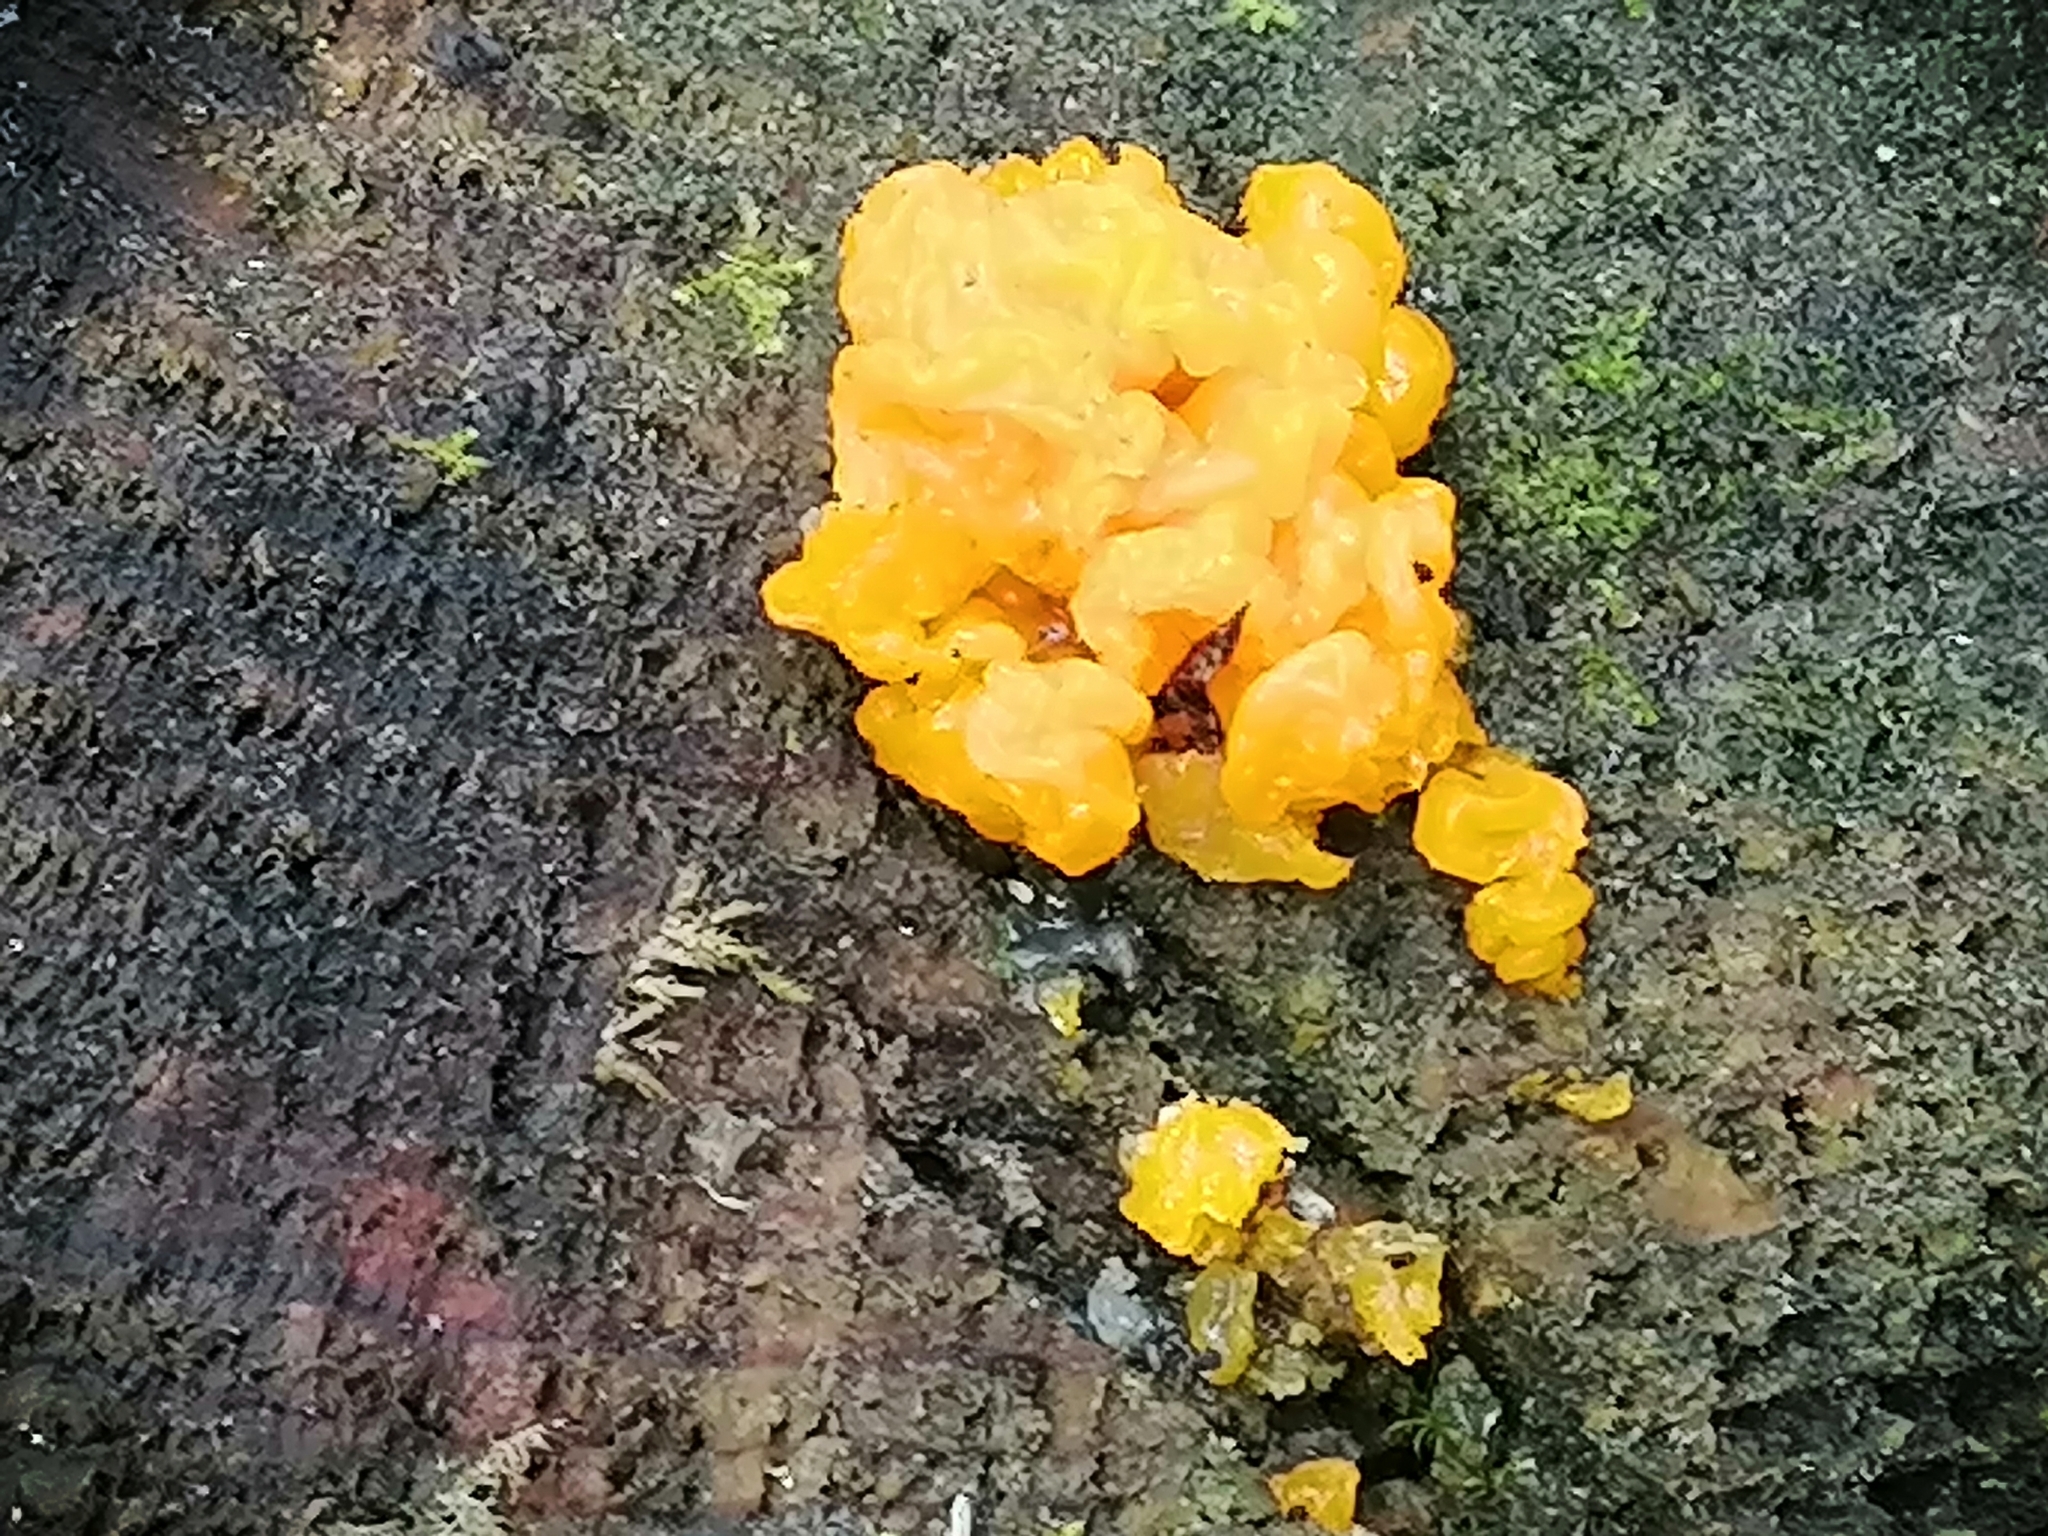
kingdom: Fungi
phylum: Basidiomycota
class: Dacrymycetes
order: Dacrymycetales
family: Dacrymycetaceae
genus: Dacrymyces
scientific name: Dacrymyces chrysospermus
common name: Orange jelly spot
